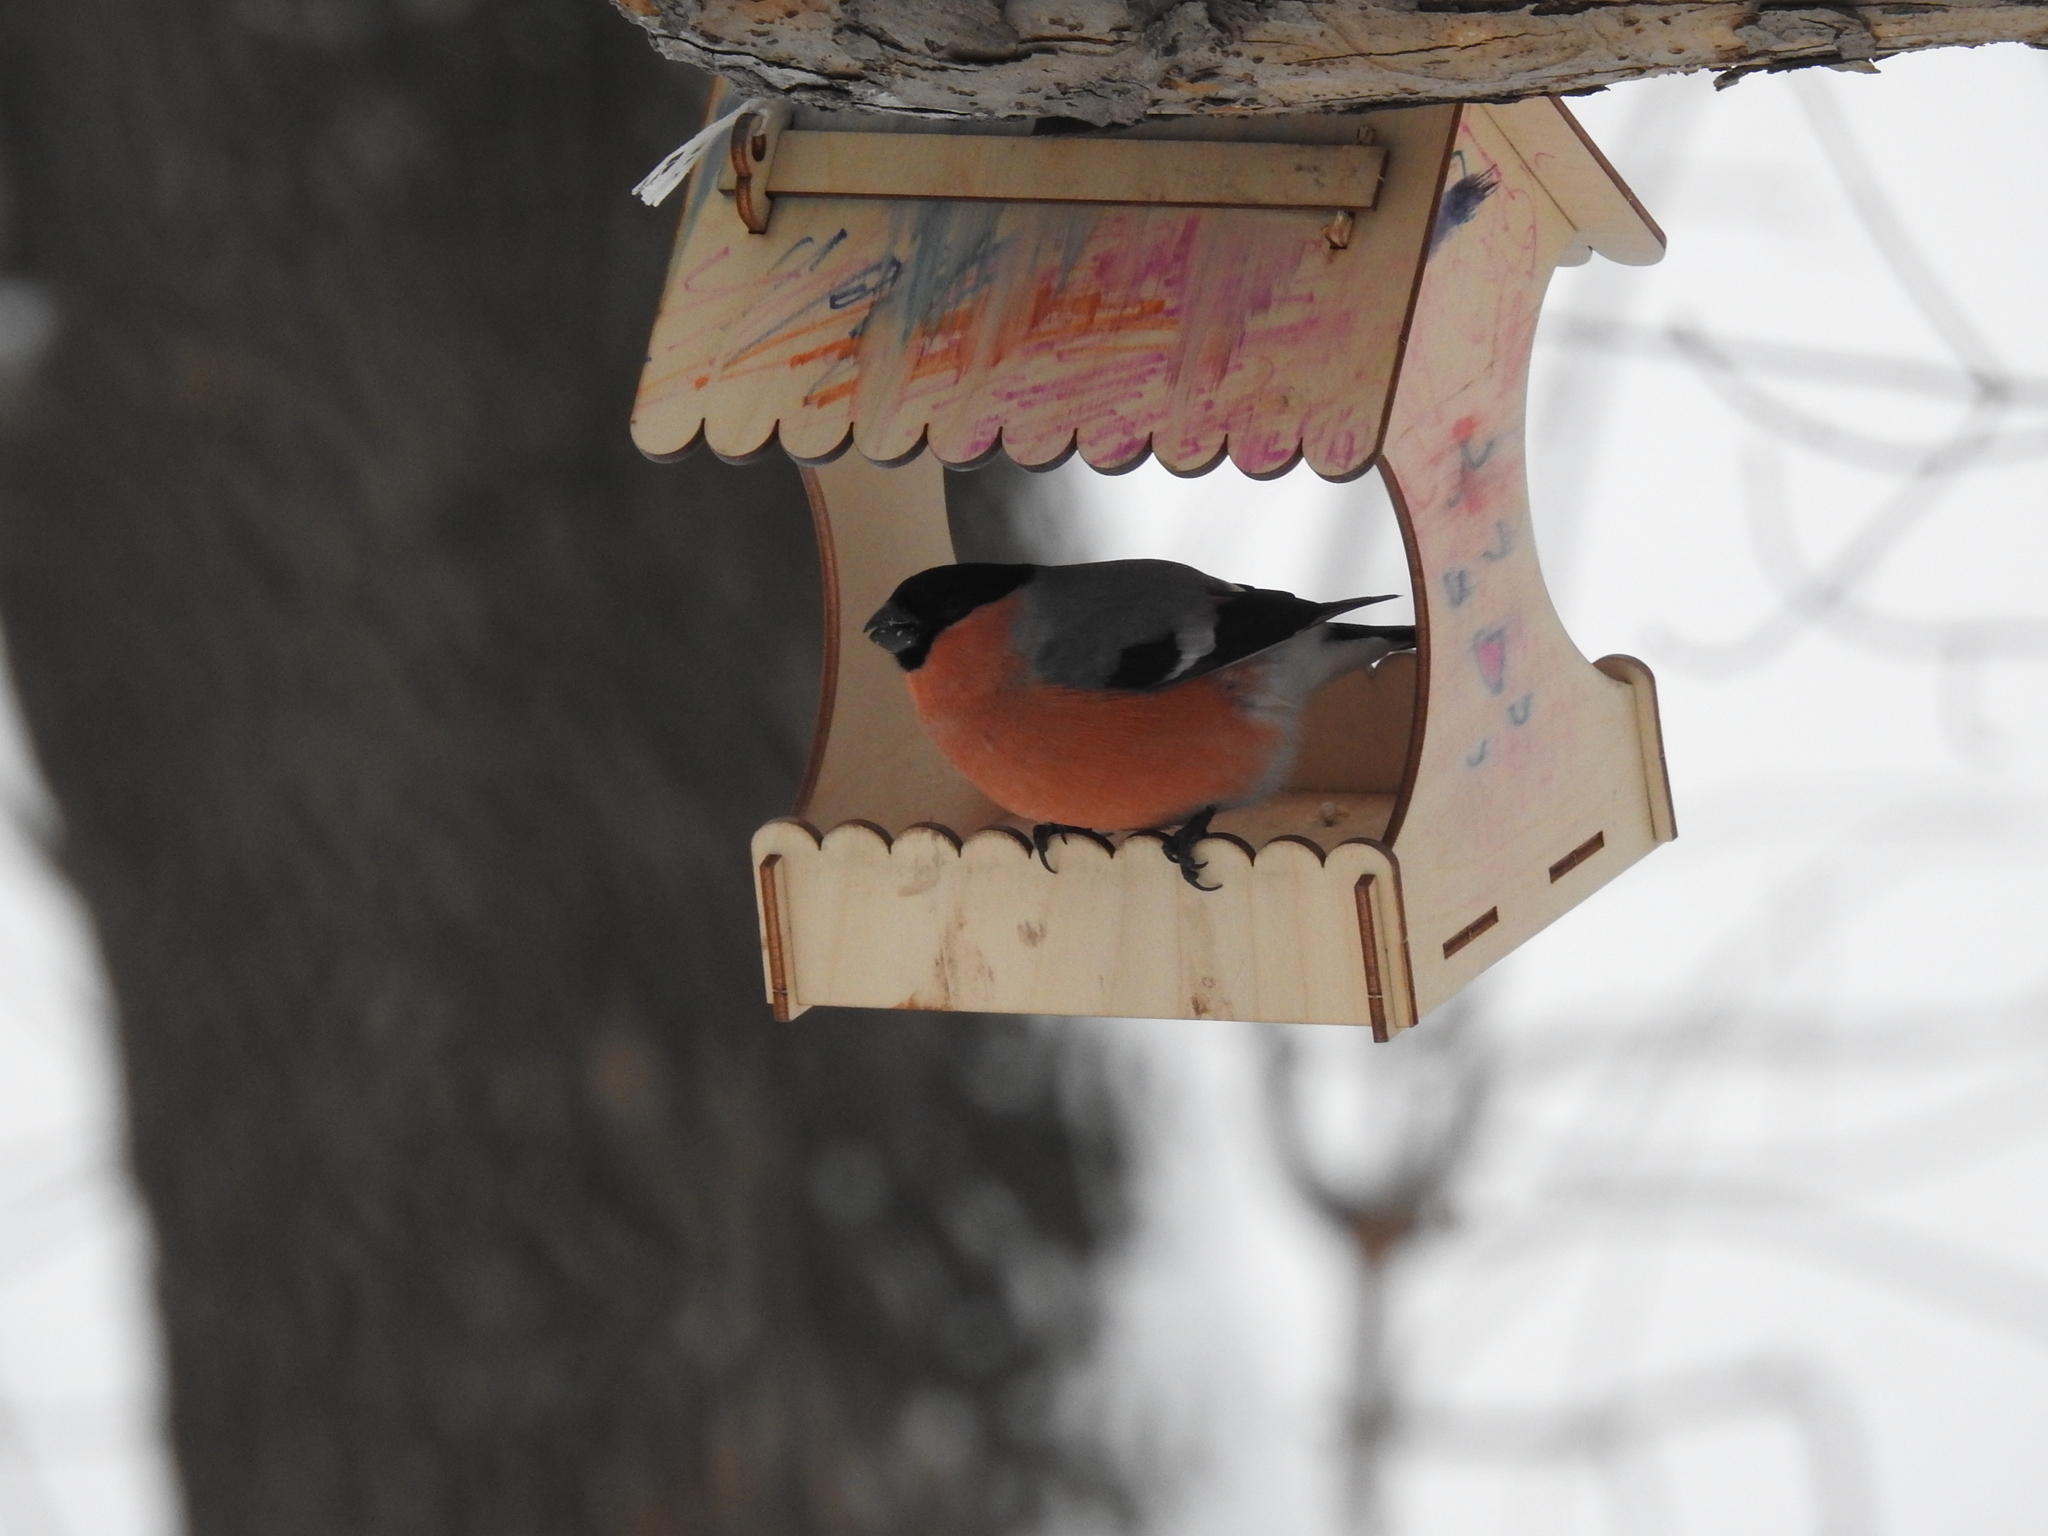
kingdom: Animalia
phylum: Chordata
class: Aves
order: Passeriformes
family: Fringillidae
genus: Pyrrhula
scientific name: Pyrrhula pyrrhula
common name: Eurasian bullfinch
